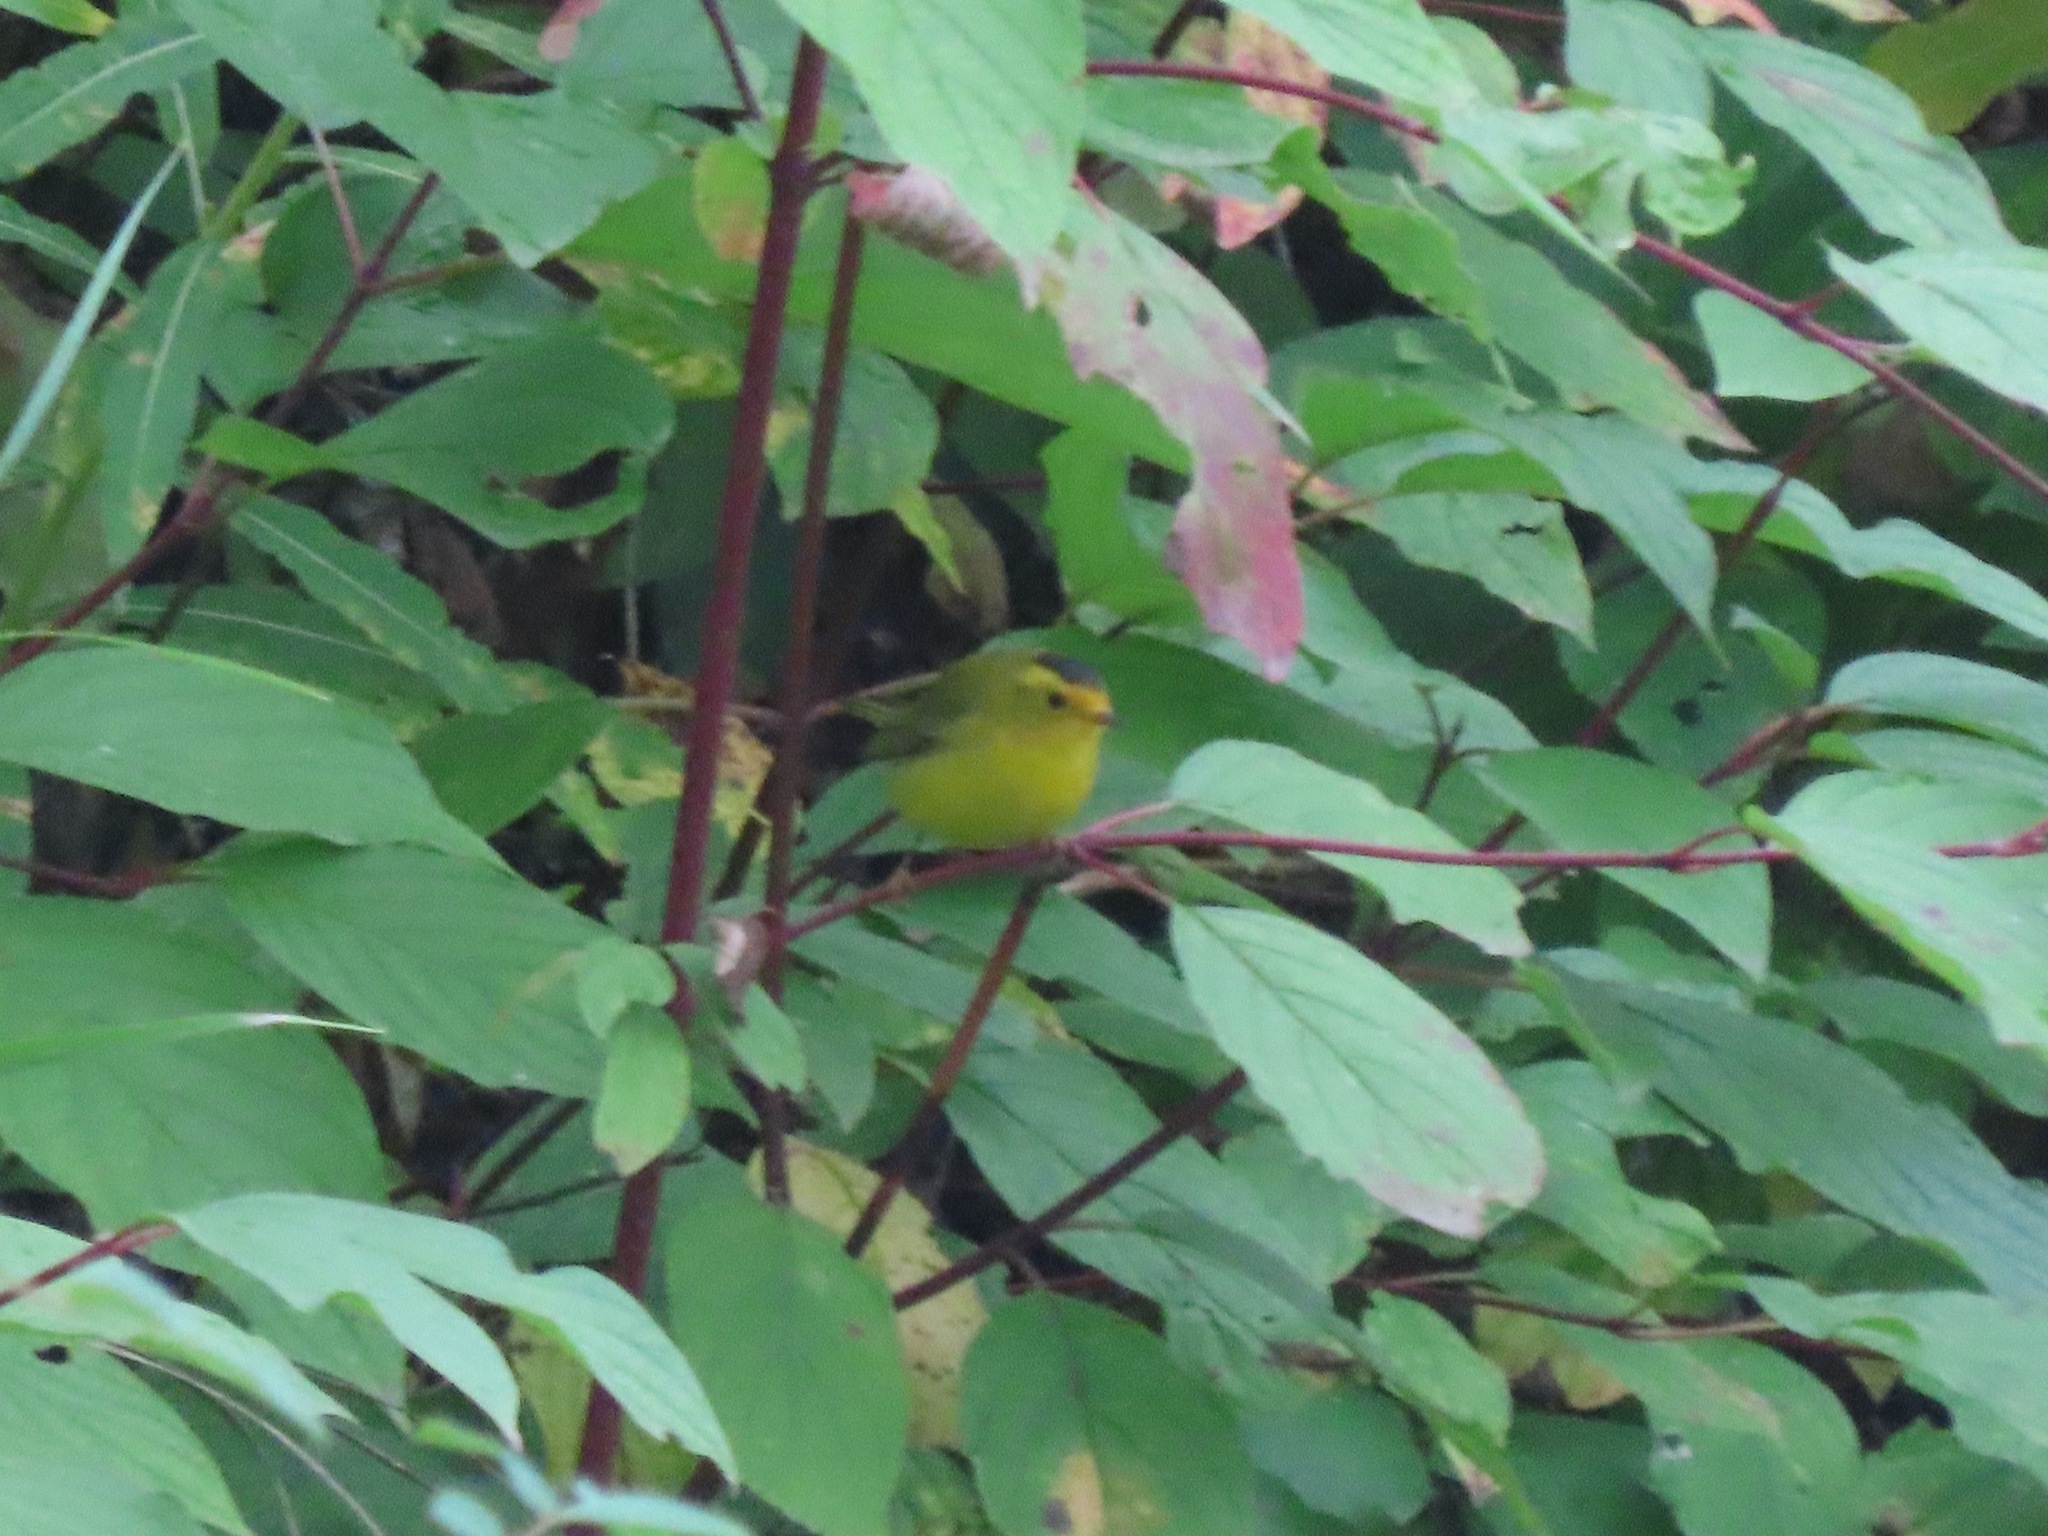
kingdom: Animalia
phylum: Chordata
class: Aves
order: Passeriformes
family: Parulidae
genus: Cardellina
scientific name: Cardellina pusilla
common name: Wilson's warbler
